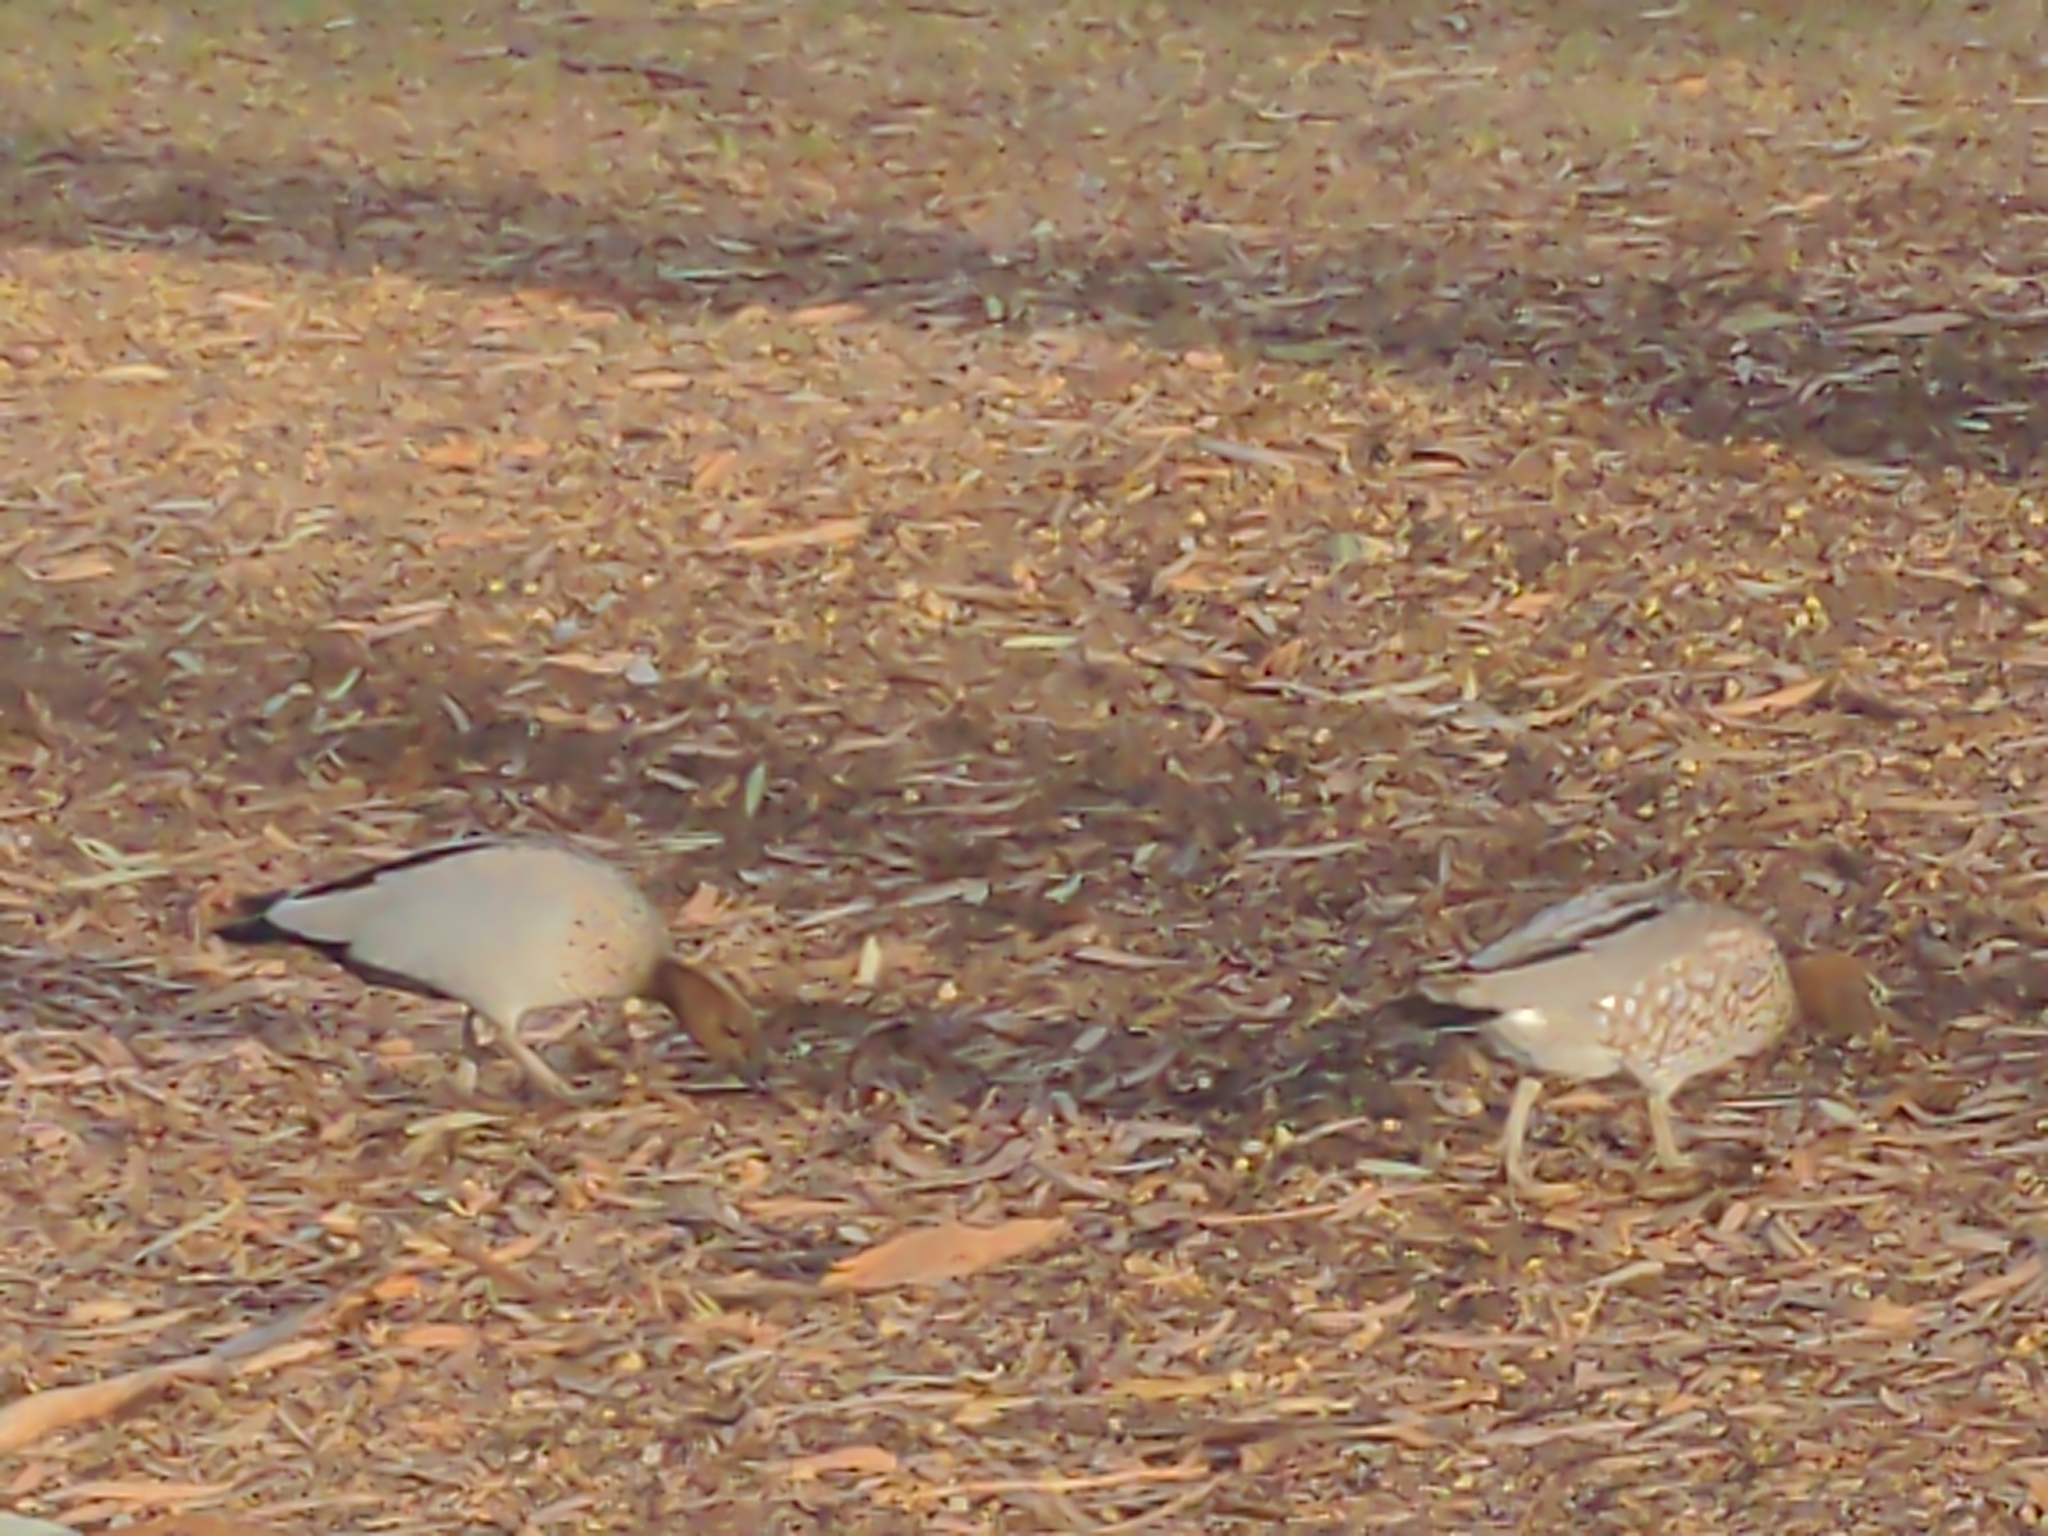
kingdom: Animalia
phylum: Chordata
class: Aves
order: Anseriformes
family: Anatidae
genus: Chenonetta
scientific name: Chenonetta jubata
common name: Maned duck
